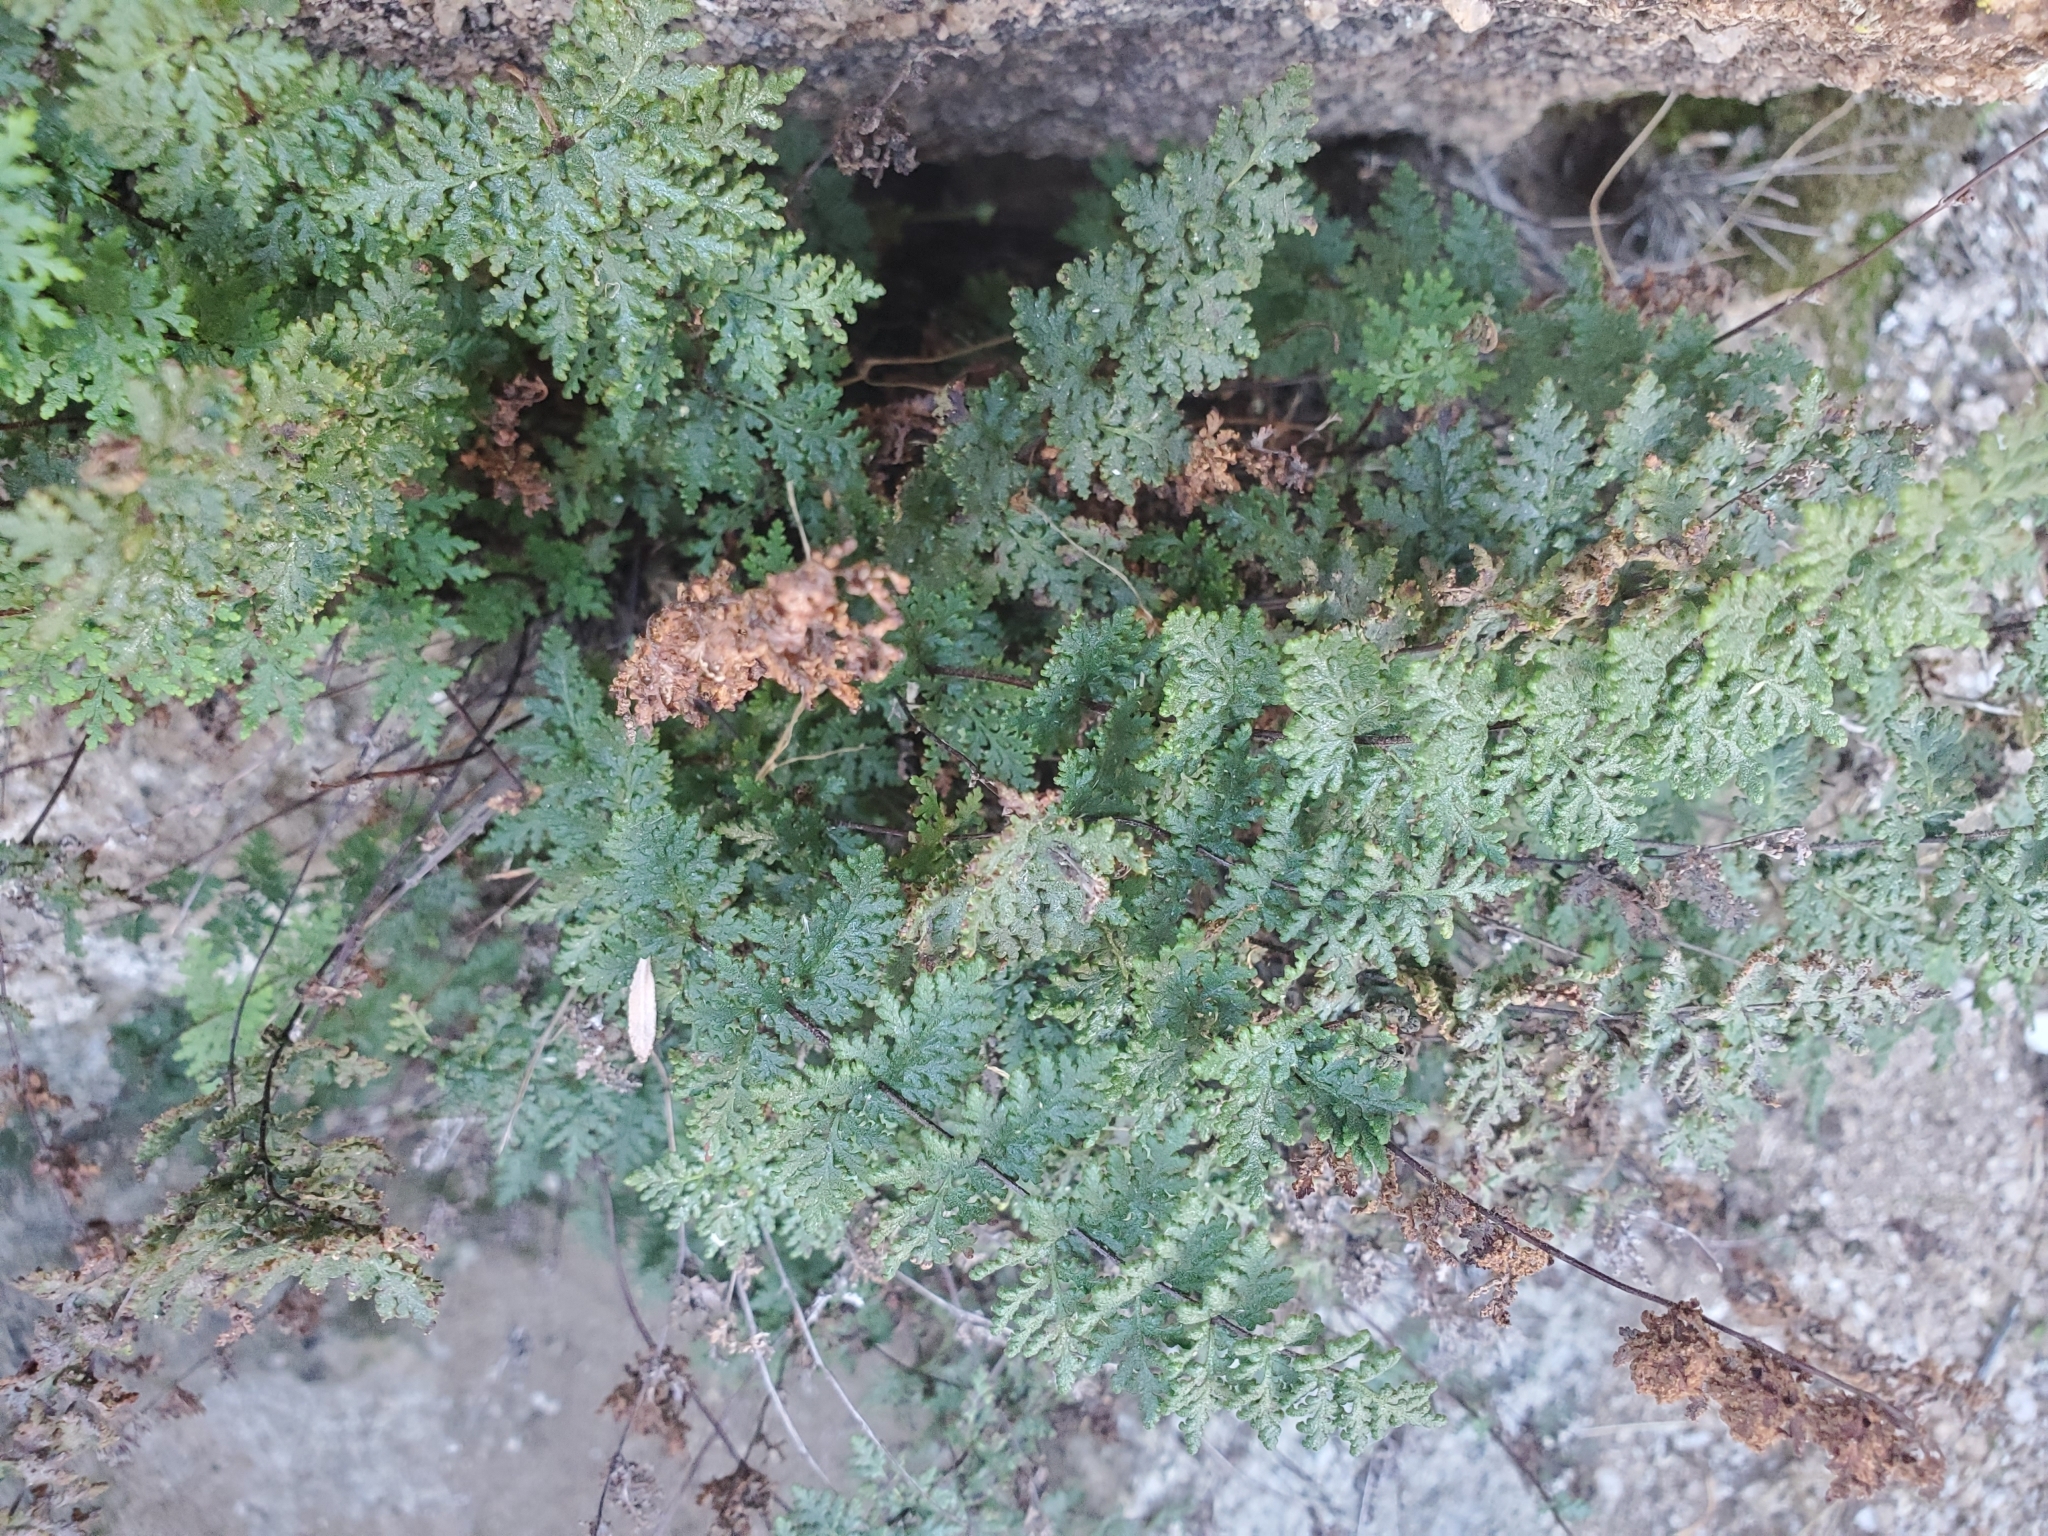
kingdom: Plantae
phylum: Tracheophyta
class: Polypodiopsida
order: Polypodiales
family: Pteridaceae
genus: Myriopteris
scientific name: Myriopteris viscida
